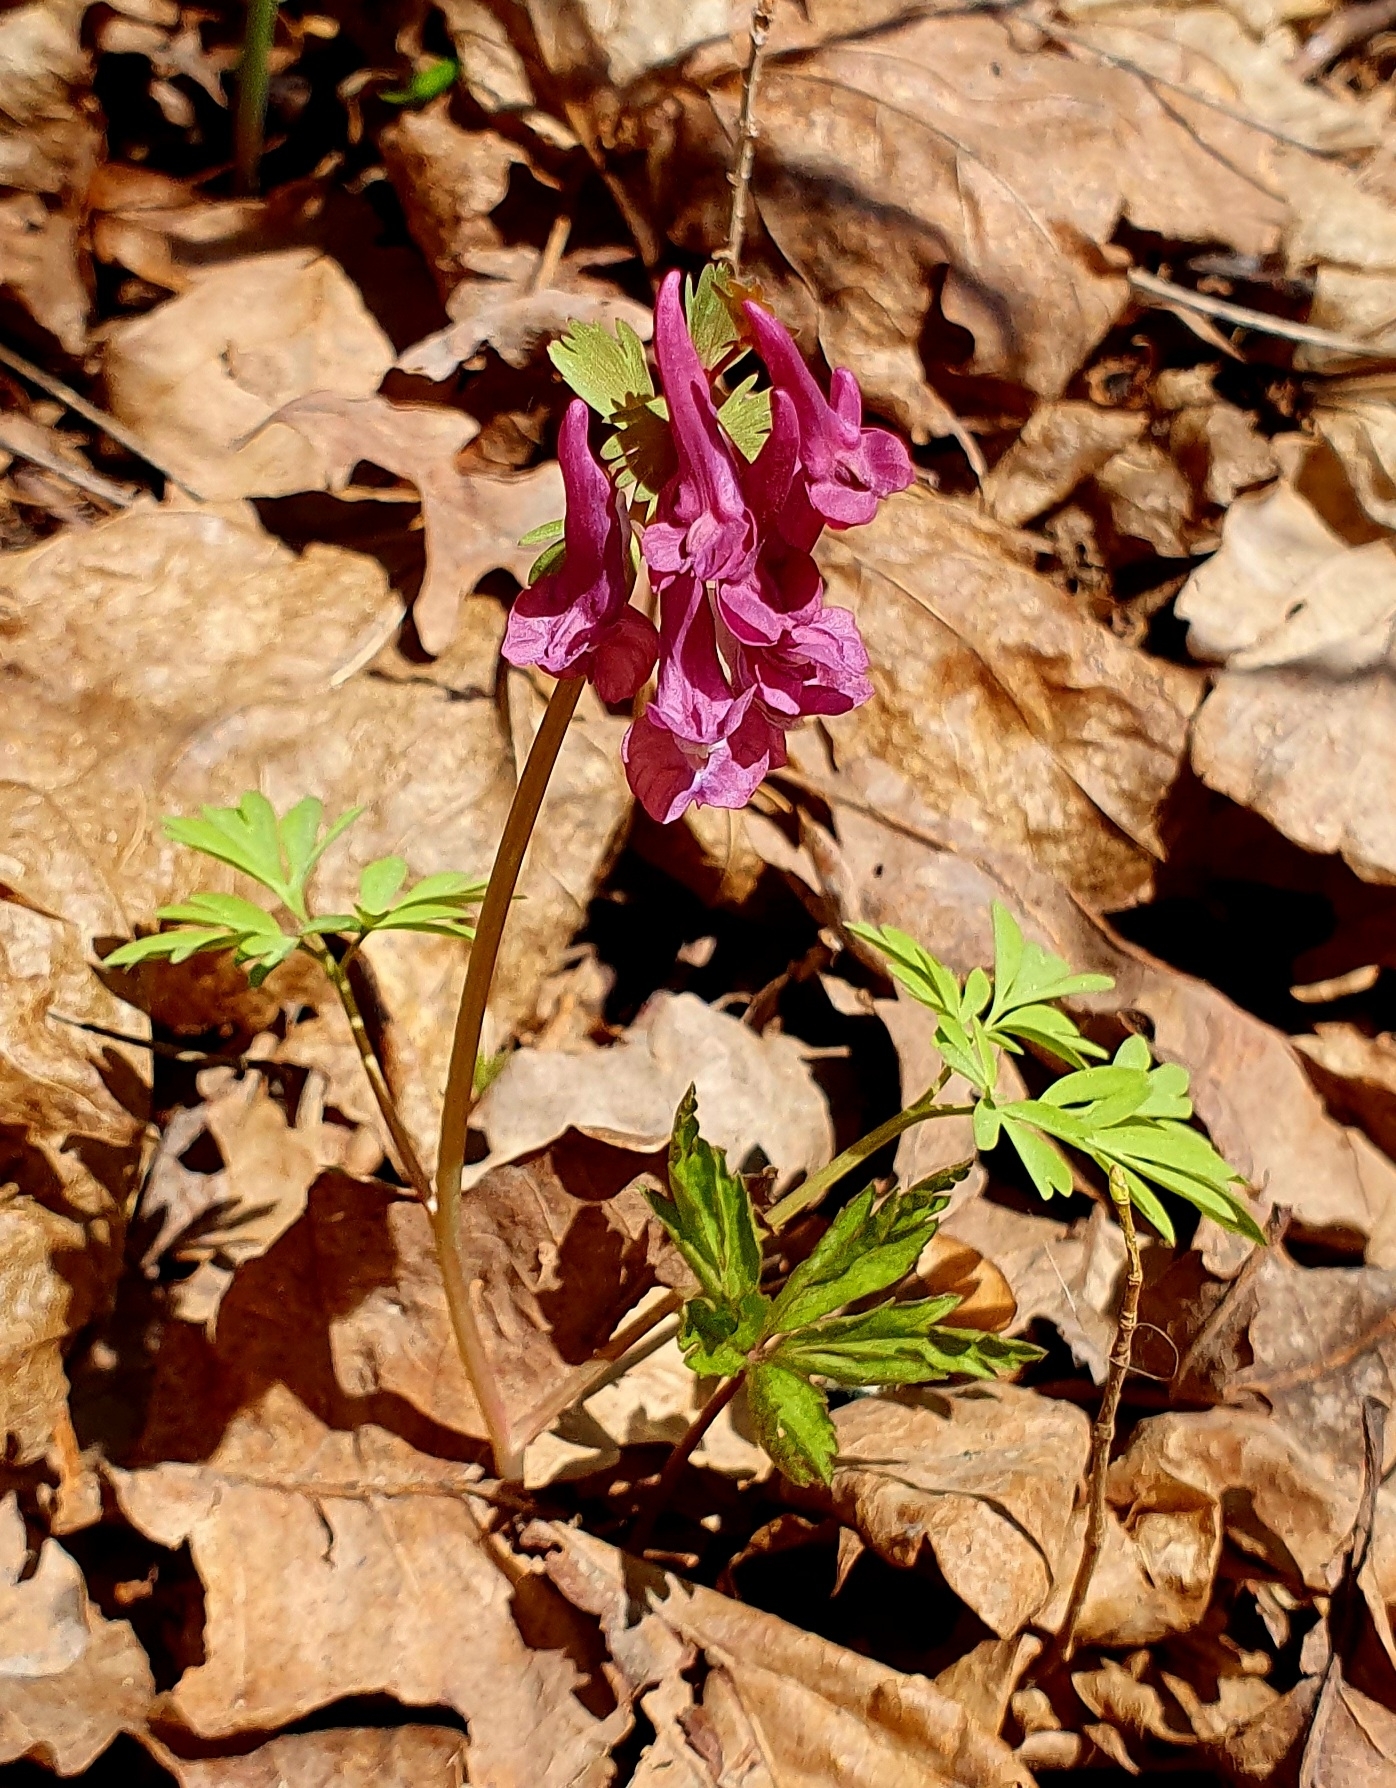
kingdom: Plantae
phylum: Tracheophyta
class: Magnoliopsida
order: Ranunculales
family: Papaveraceae
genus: Corydalis
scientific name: Corydalis solida
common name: Bird-in-a-bush
